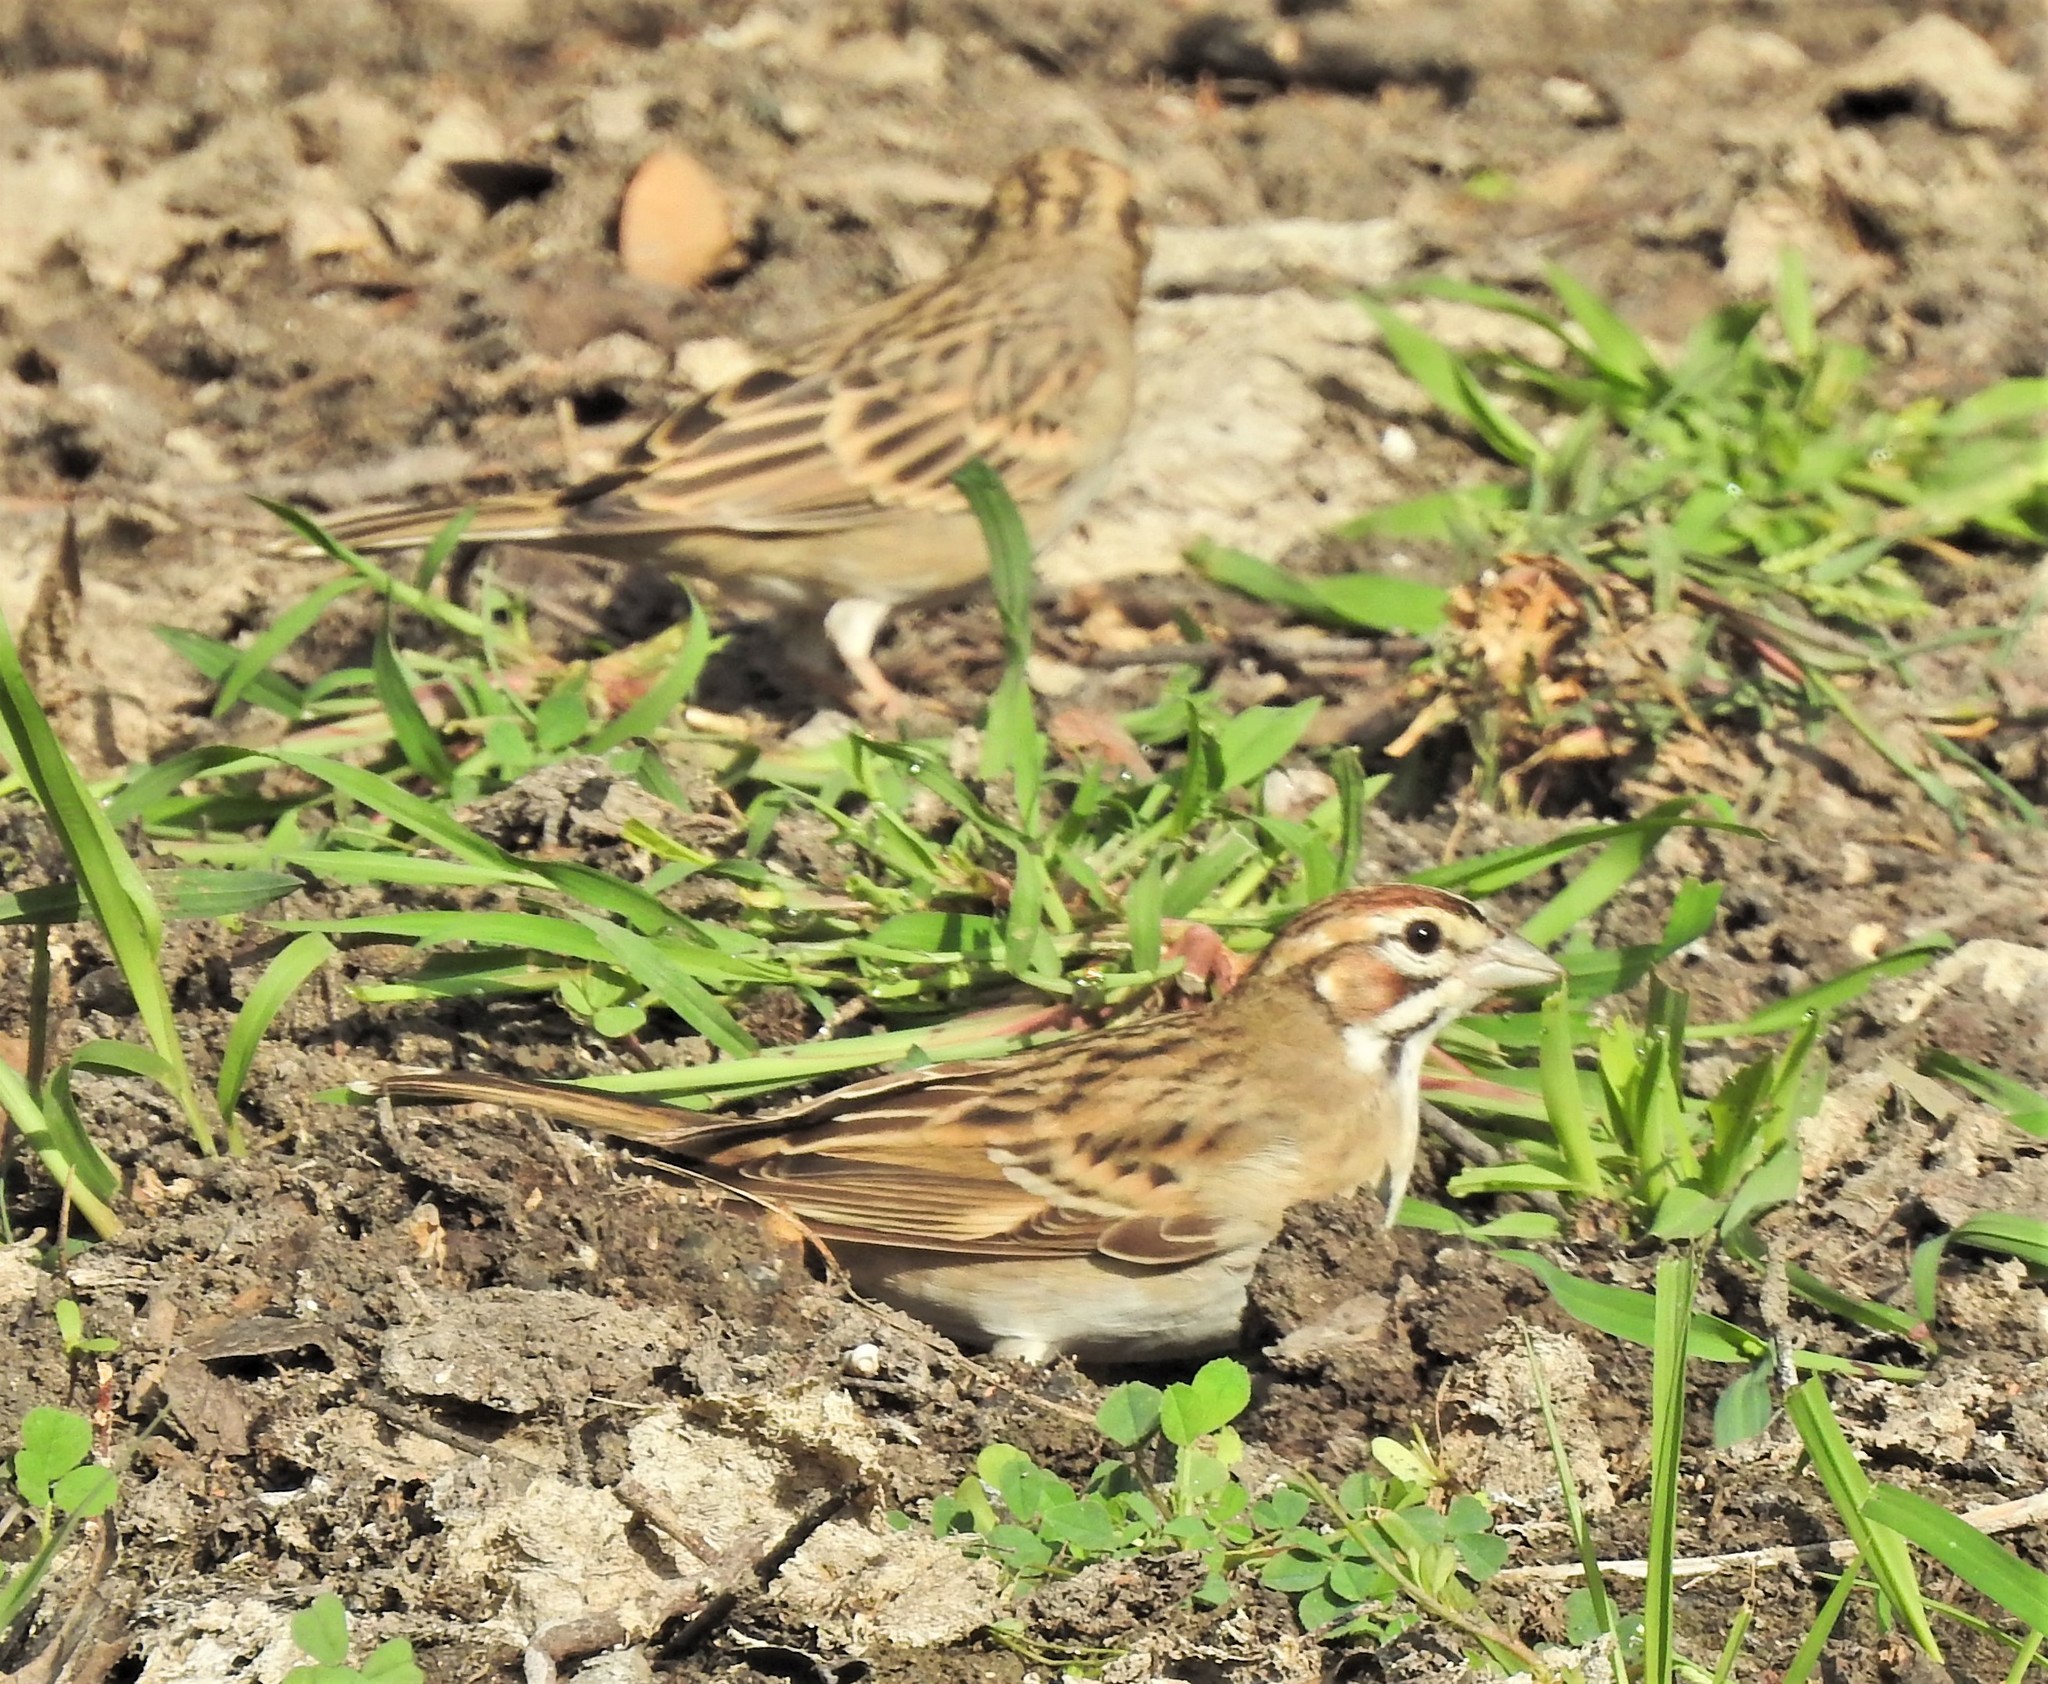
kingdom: Animalia
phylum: Chordata
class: Aves
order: Passeriformes
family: Passerellidae
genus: Chondestes
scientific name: Chondestes grammacus
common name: Lark sparrow
